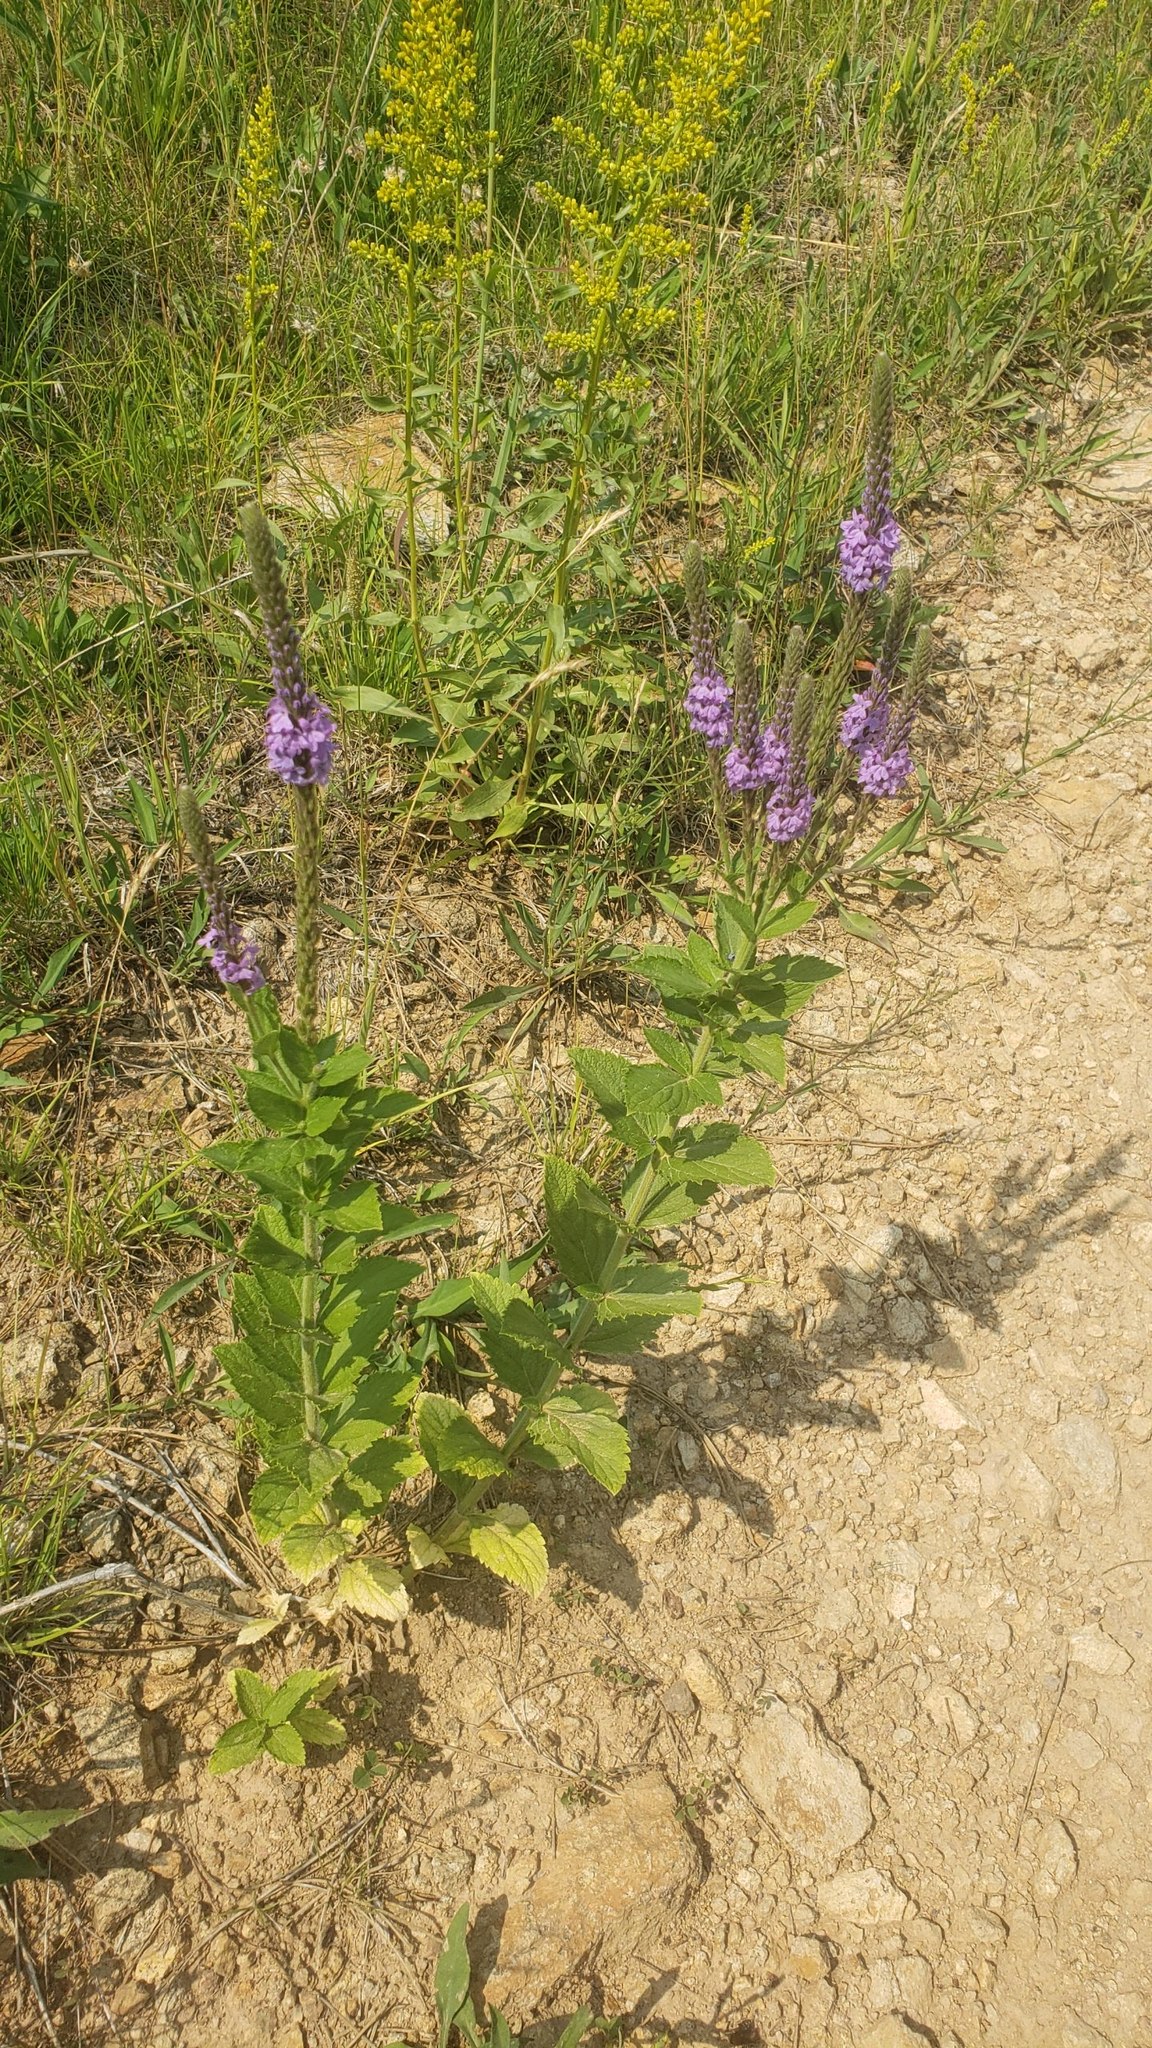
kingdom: Plantae
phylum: Tracheophyta
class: Magnoliopsida
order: Lamiales
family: Verbenaceae
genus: Verbena
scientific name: Verbena stricta
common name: Hoary vervain
